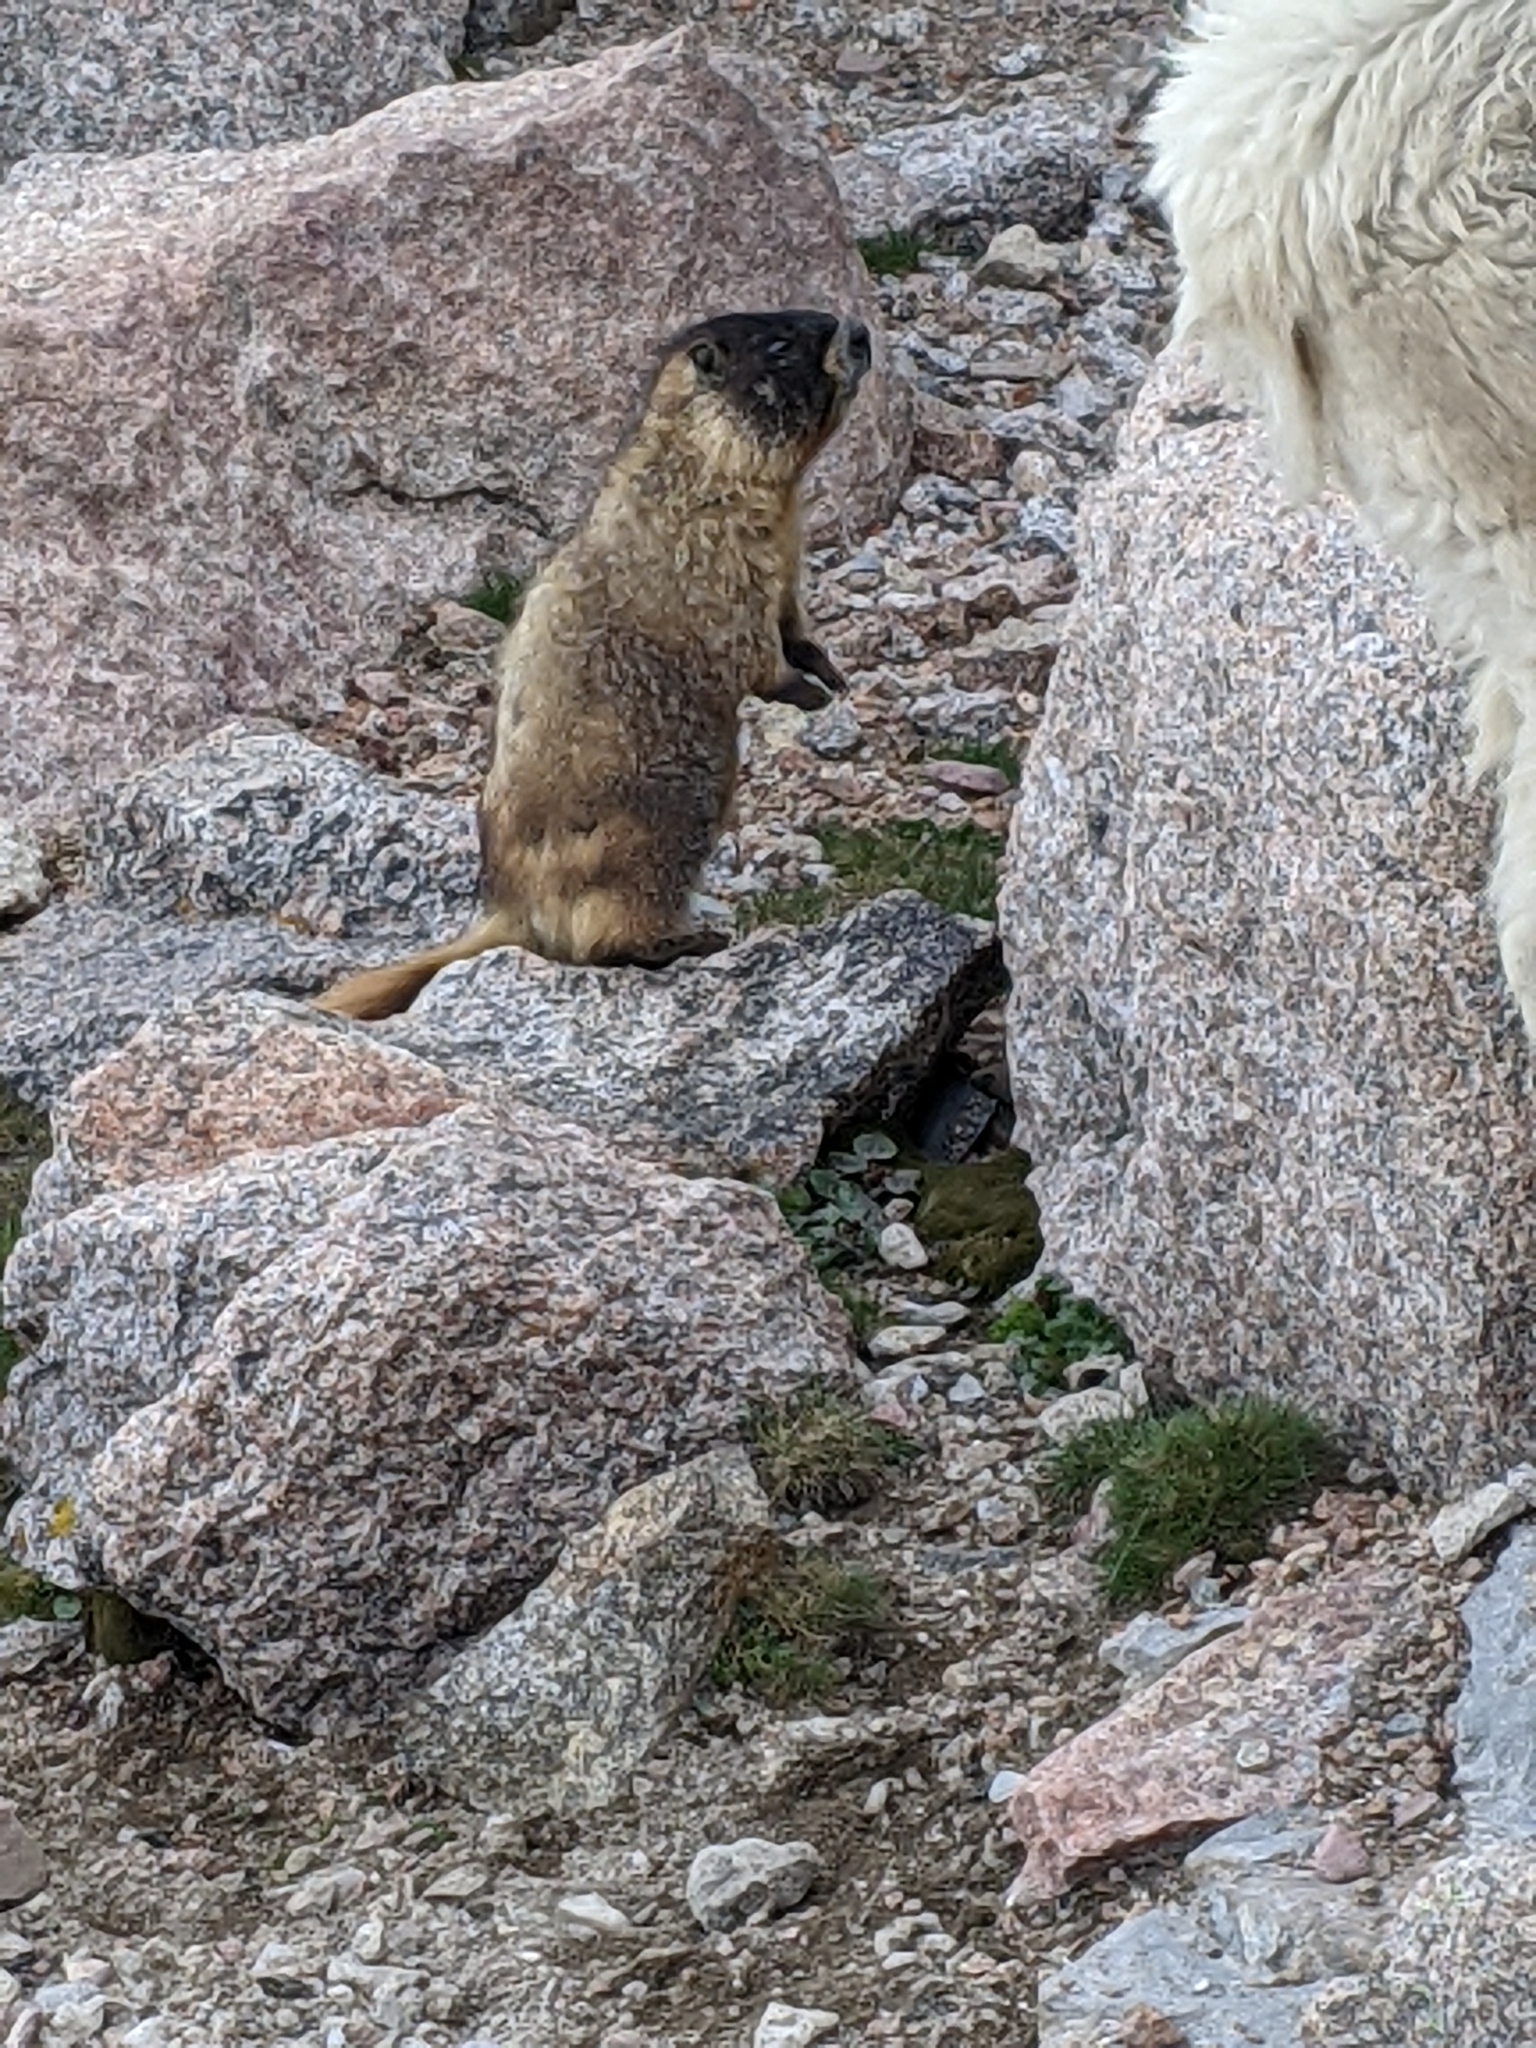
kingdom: Animalia
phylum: Chordata
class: Mammalia
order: Rodentia
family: Sciuridae
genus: Marmota
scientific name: Marmota flaviventris
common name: Yellow-bellied marmot
